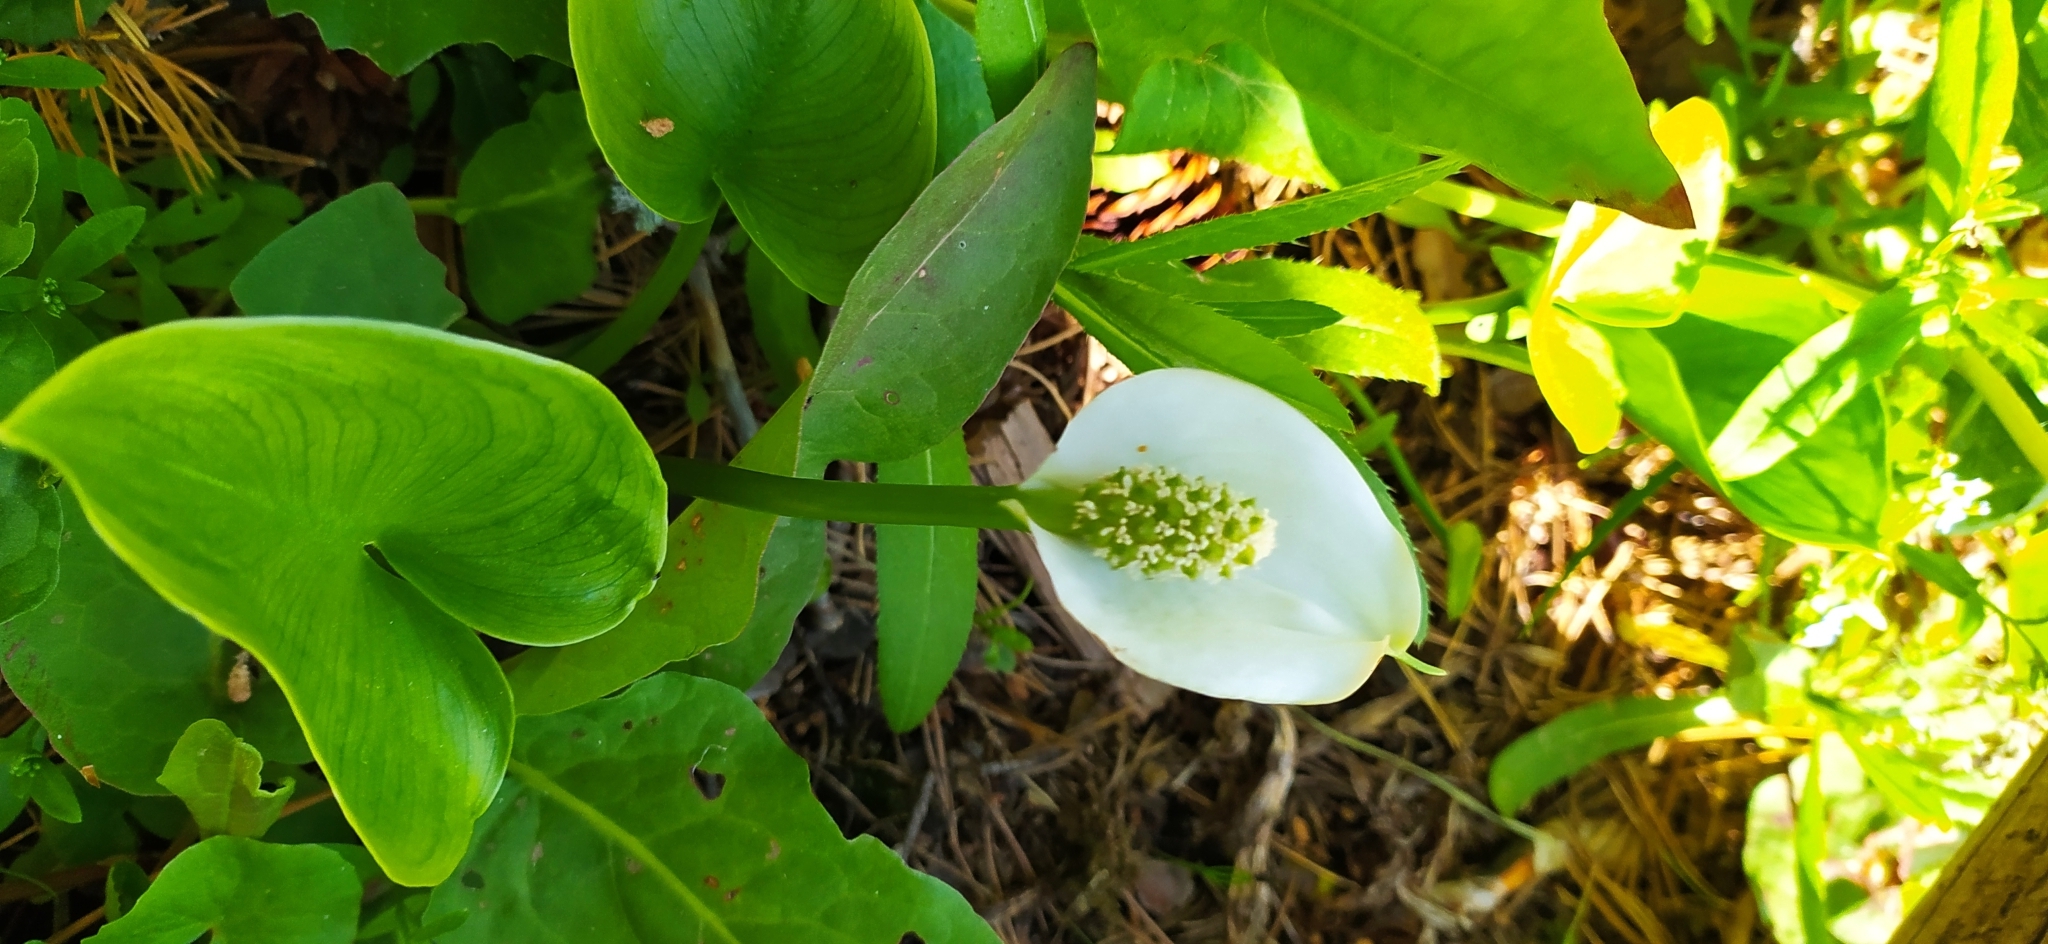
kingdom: Plantae
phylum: Tracheophyta
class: Liliopsida
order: Alismatales
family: Araceae
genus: Calla
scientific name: Calla palustris
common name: Bog arum
